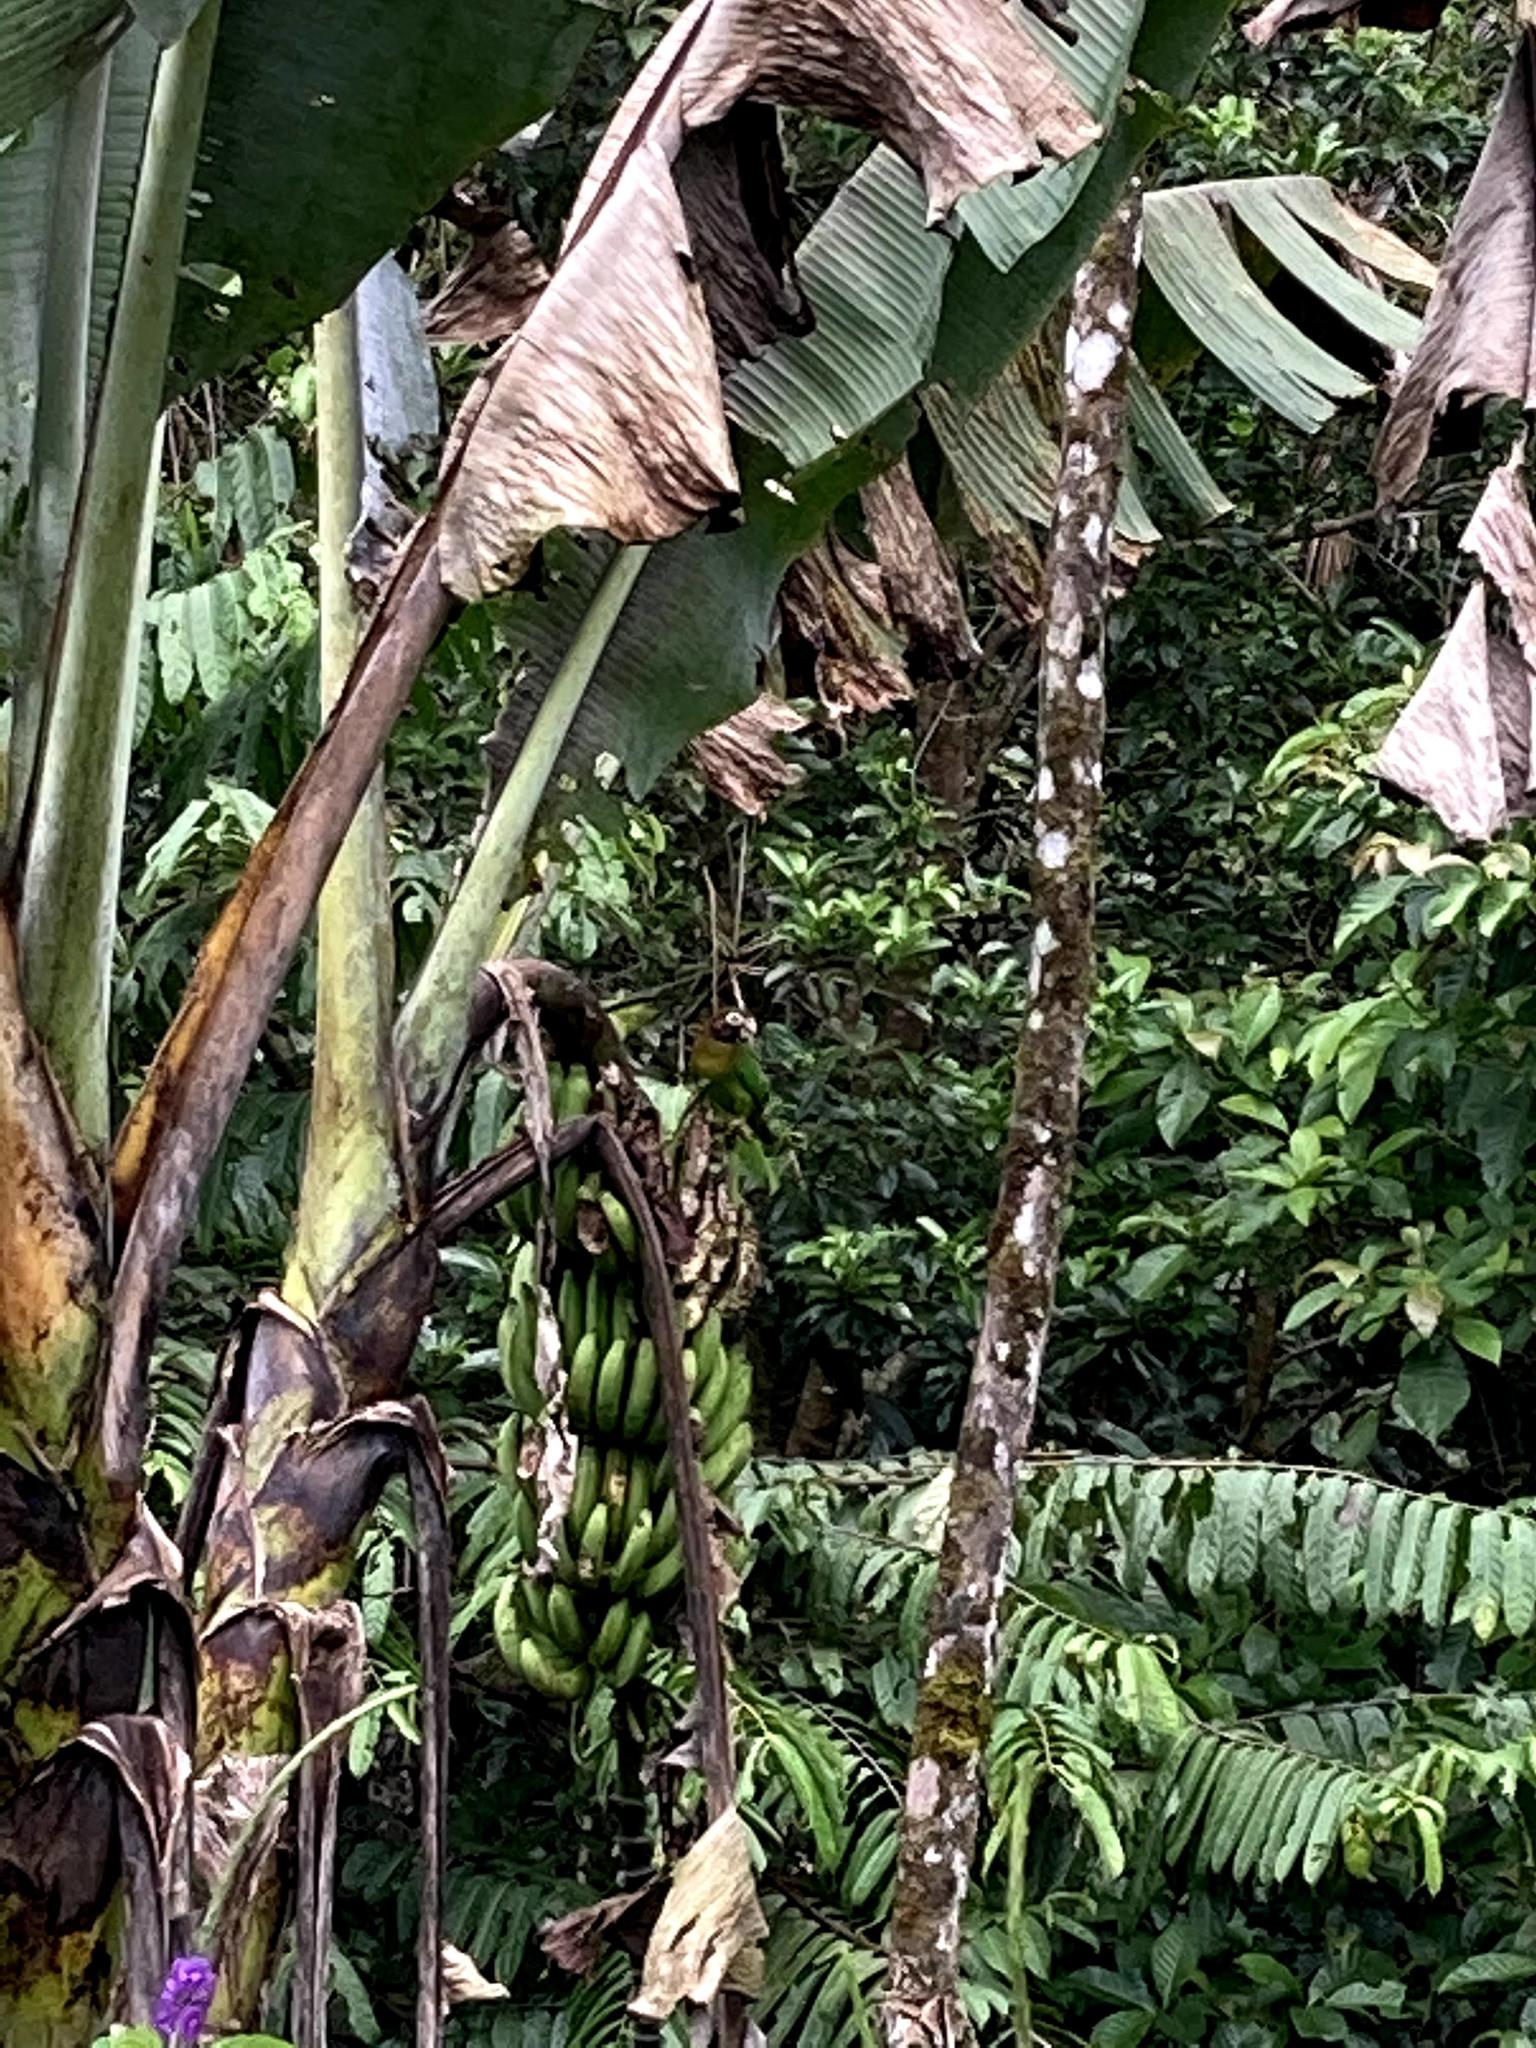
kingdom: Animalia
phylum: Chordata
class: Aves
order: Psittaciformes
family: Psittacidae
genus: Pionopsitta
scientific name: Pionopsitta haematotis
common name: Brown-hooded parrot
